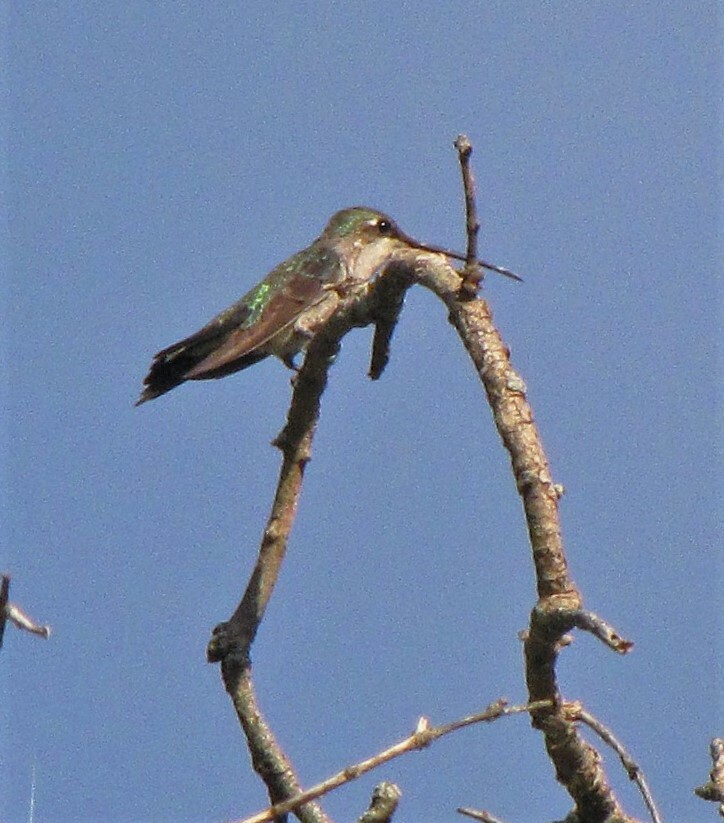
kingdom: Animalia
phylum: Chordata
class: Aves
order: Apodiformes
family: Trochilidae
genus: Heliomaster
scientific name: Heliomaster furcifer
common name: Blue-tufted starthroat
